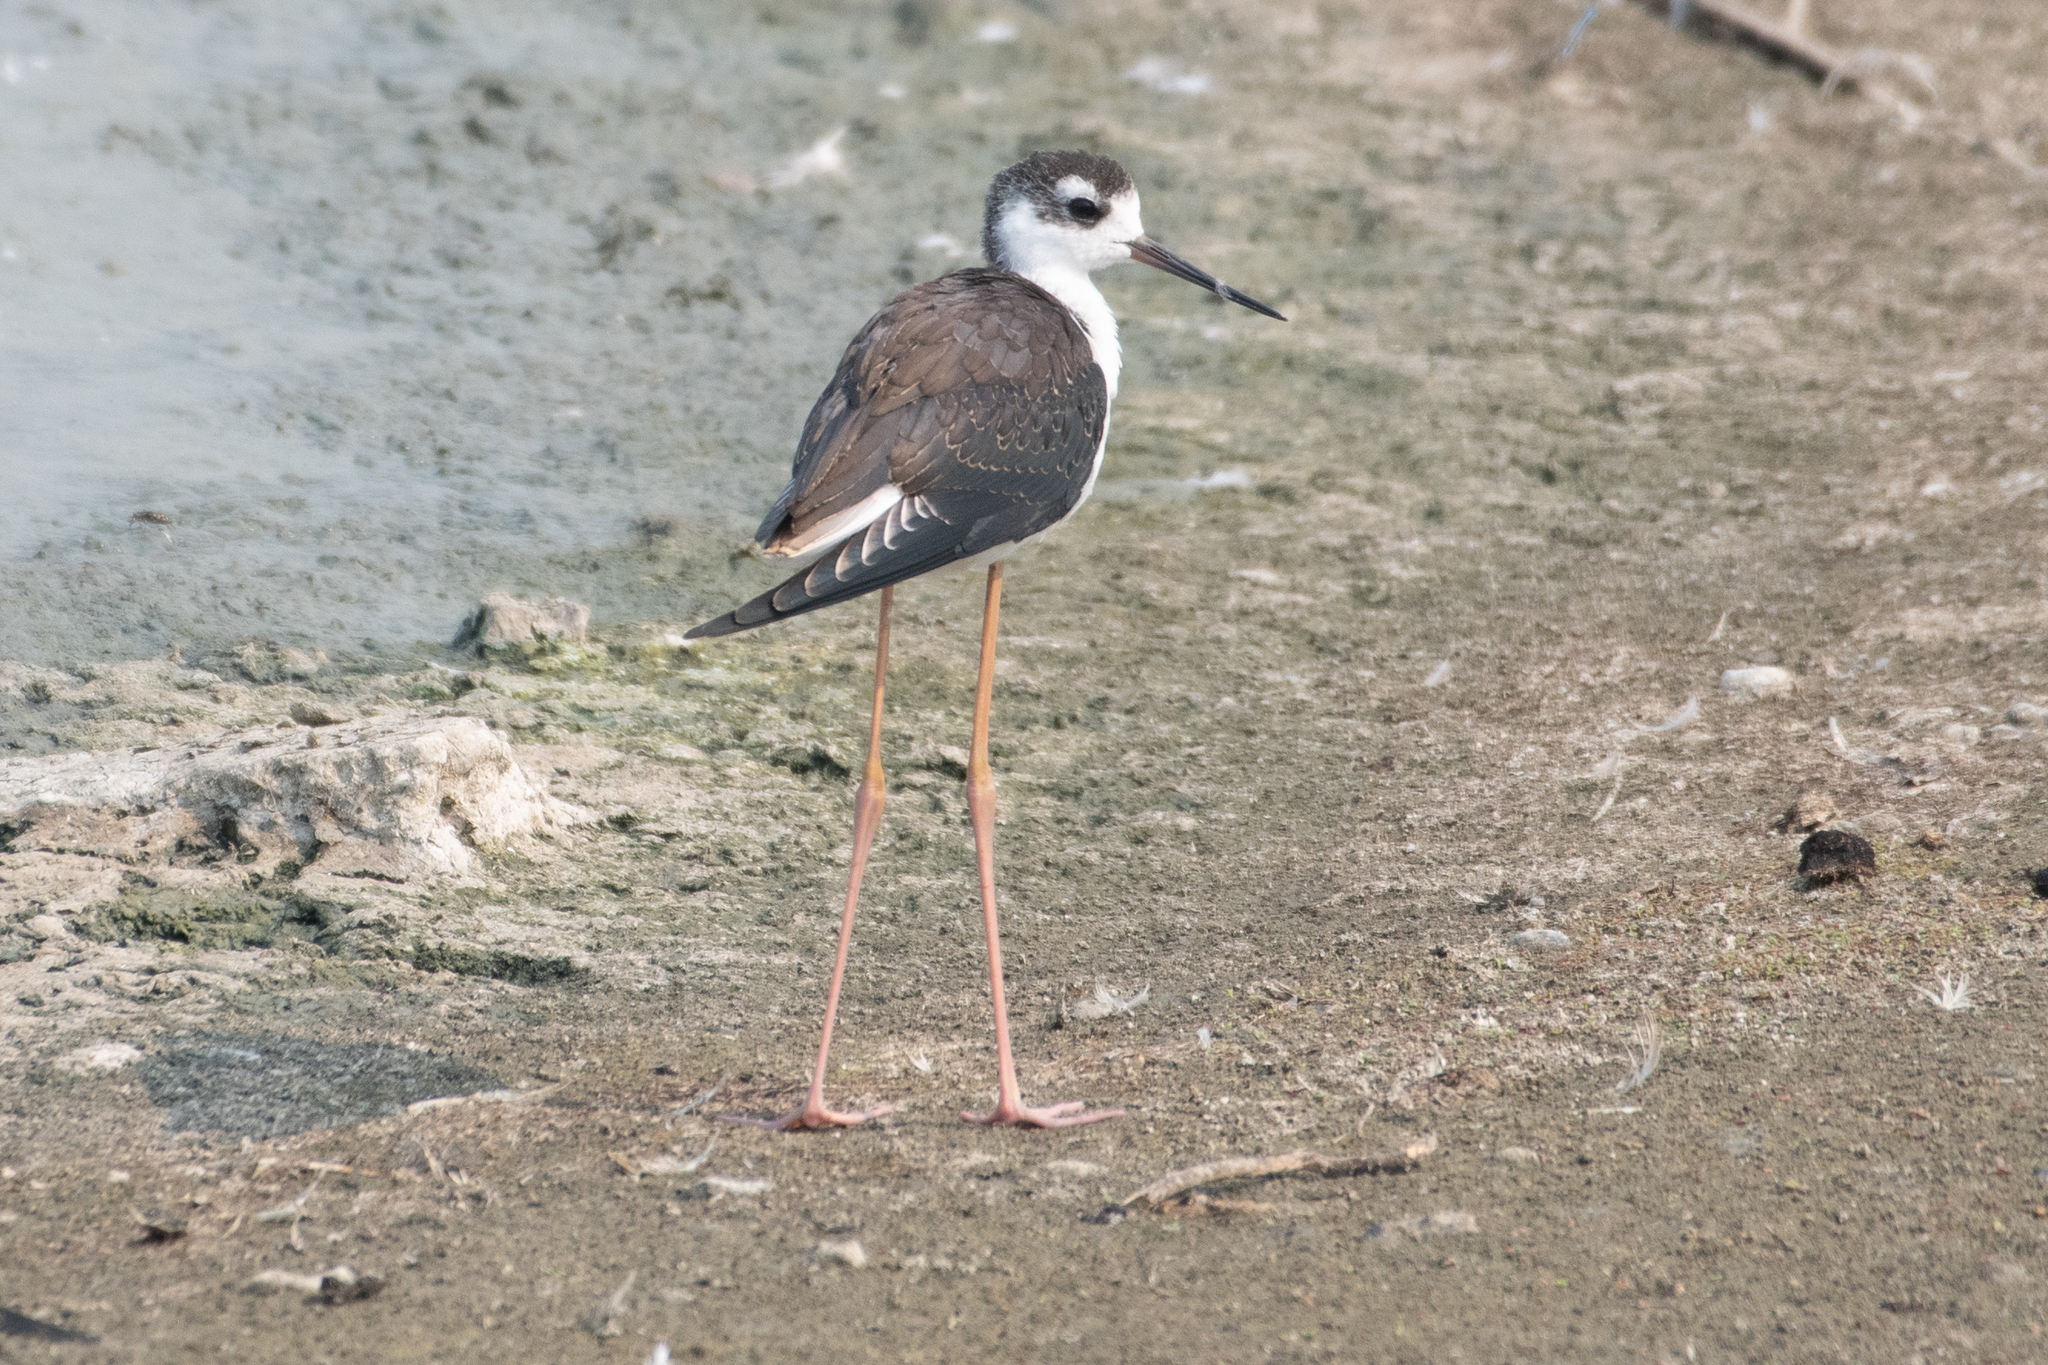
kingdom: Animalia
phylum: Chordata
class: Aves
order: Charadriiformes
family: Recurvirostridae
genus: Himantopus
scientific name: Himantopus mexicanus
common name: Black-necked stilt
